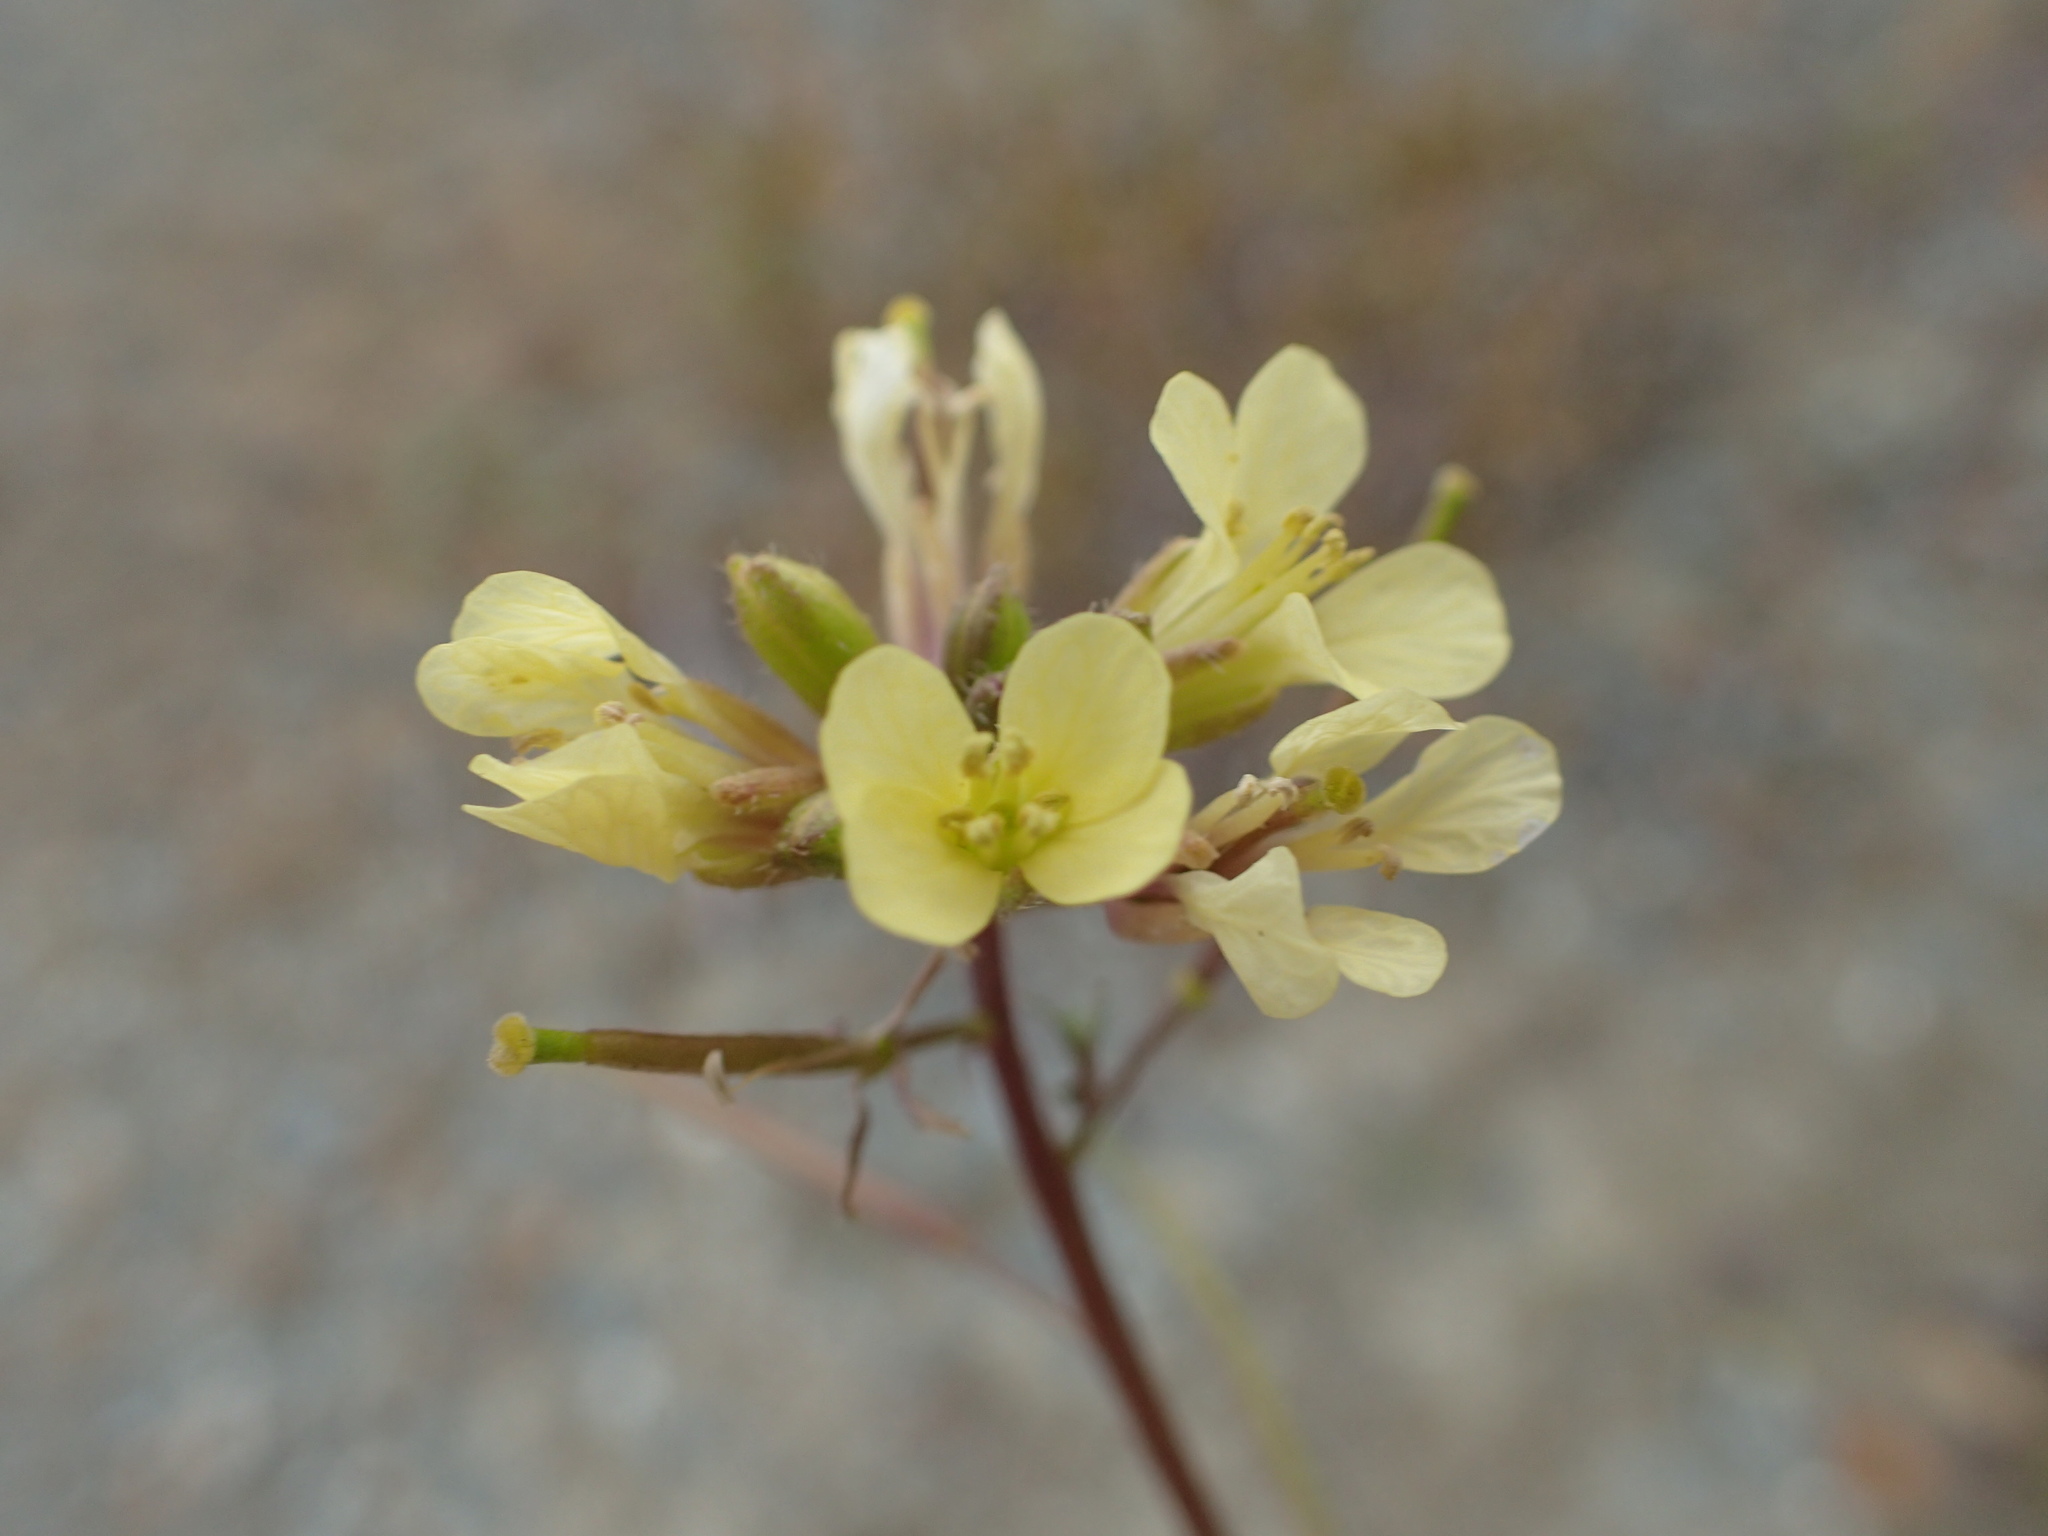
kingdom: Plantae
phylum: Tracheophyta
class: Magnoliopsida
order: Brassicales
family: Brassicaceae
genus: Erucastrum
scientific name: Erucastrum gallicum
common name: Hairy rocket
